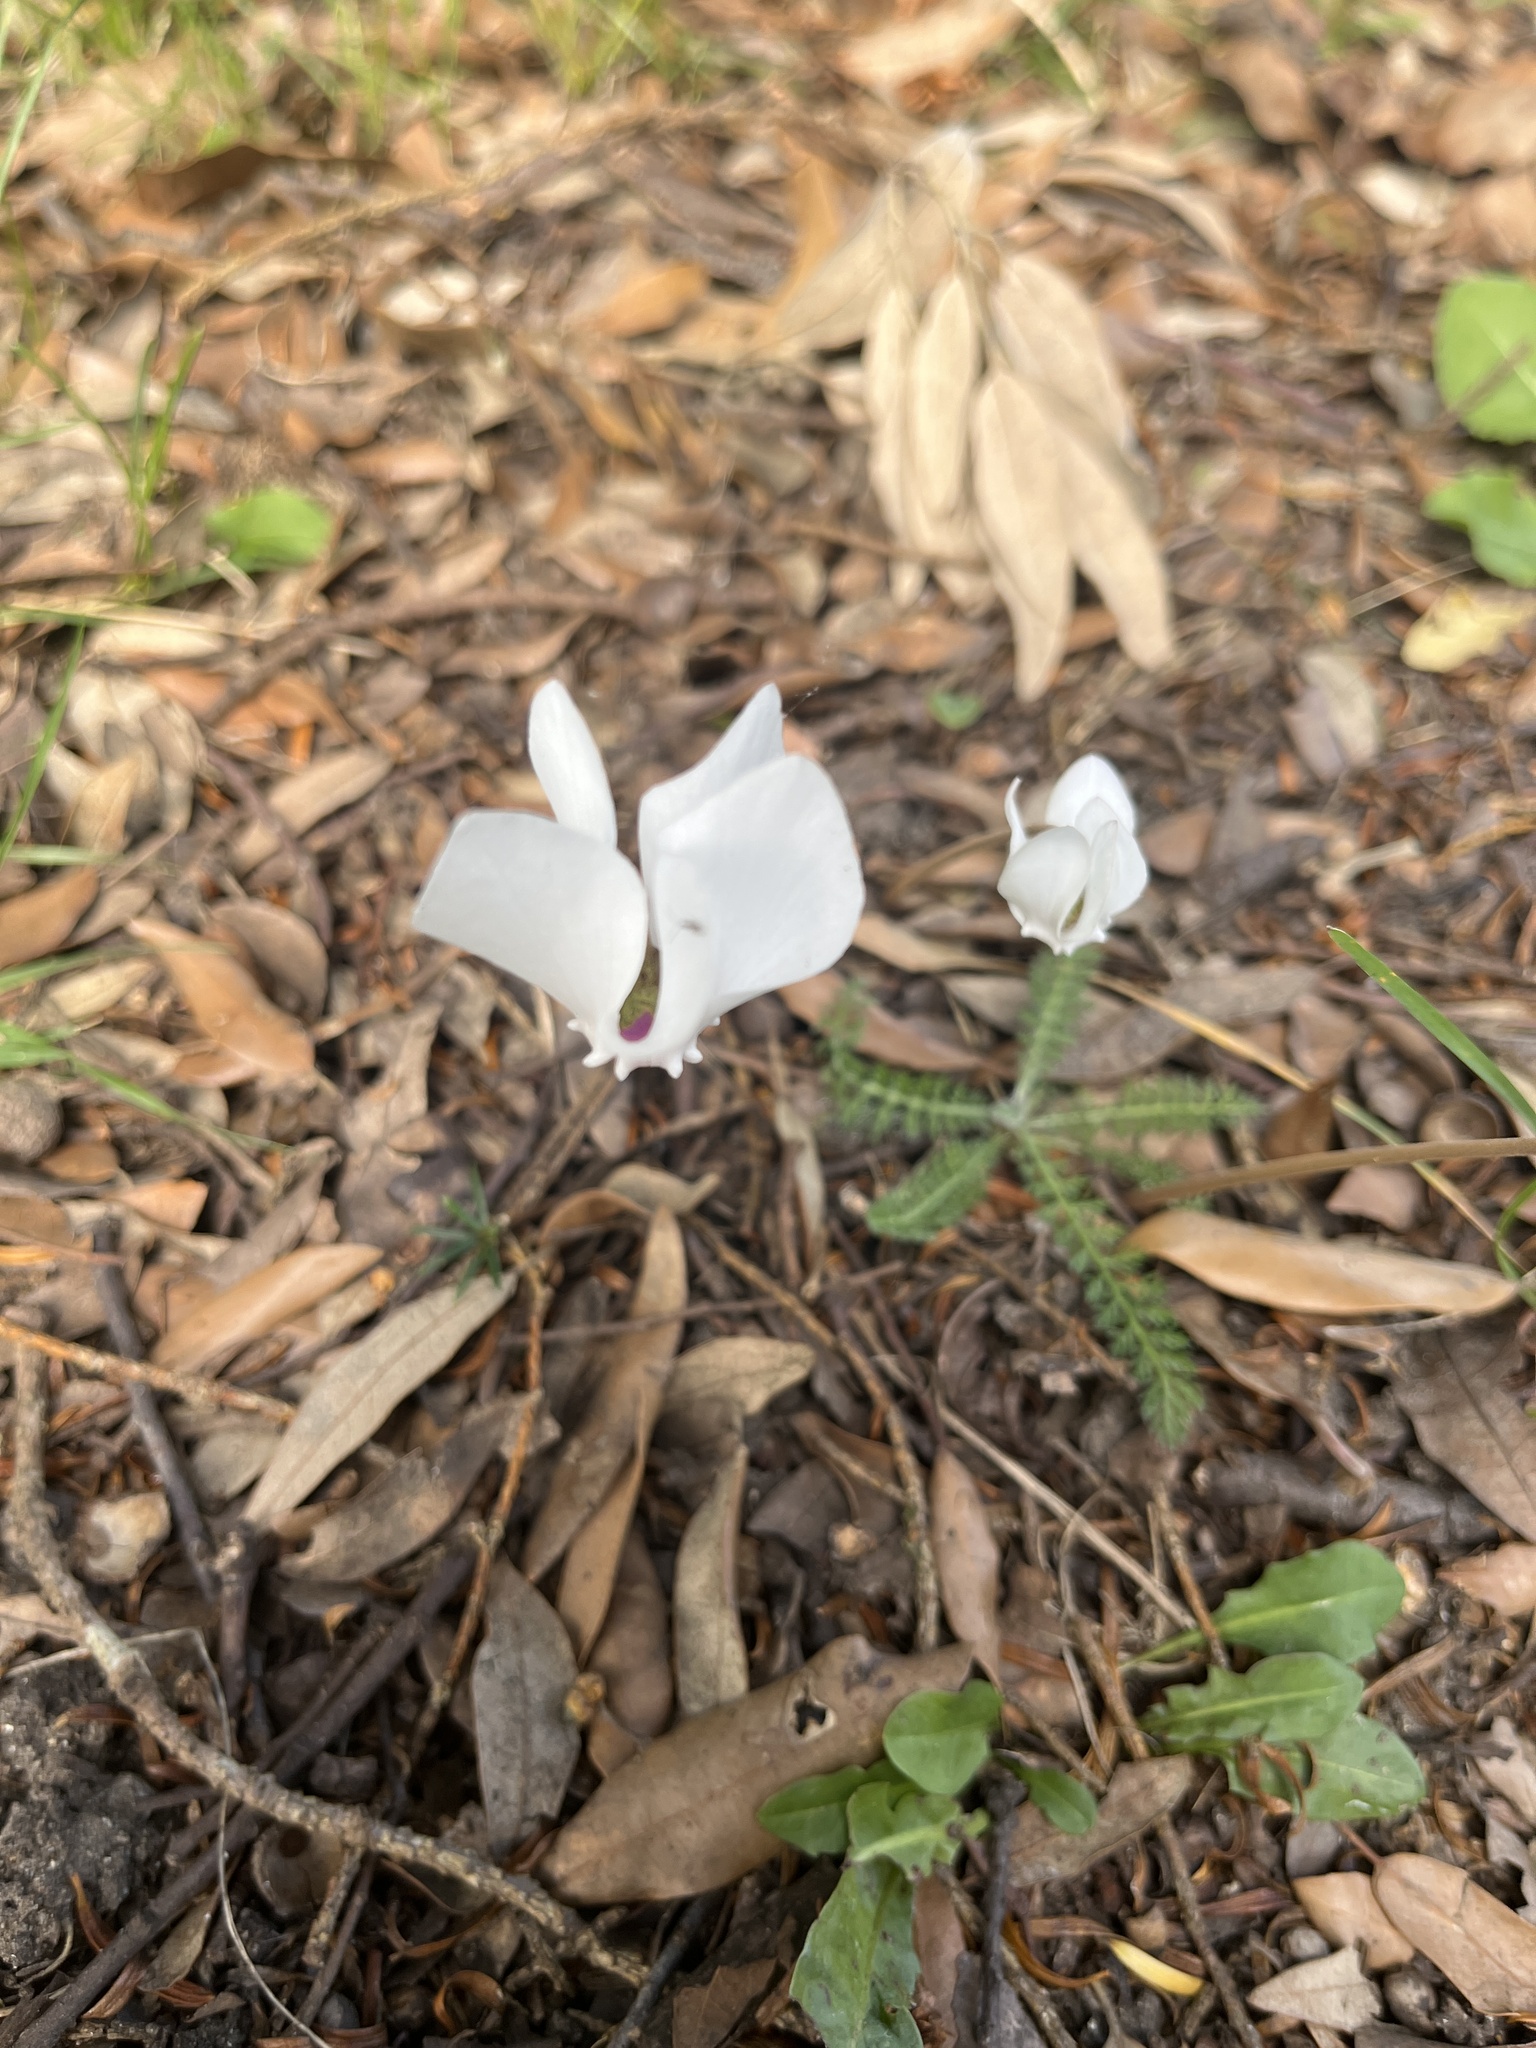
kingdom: Plantae
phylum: Tracheophyta
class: Magnoliopsida
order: Ericales
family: Primulaceae
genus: Cyclamen
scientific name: Cyclamen hederifolium
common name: Sowbread
